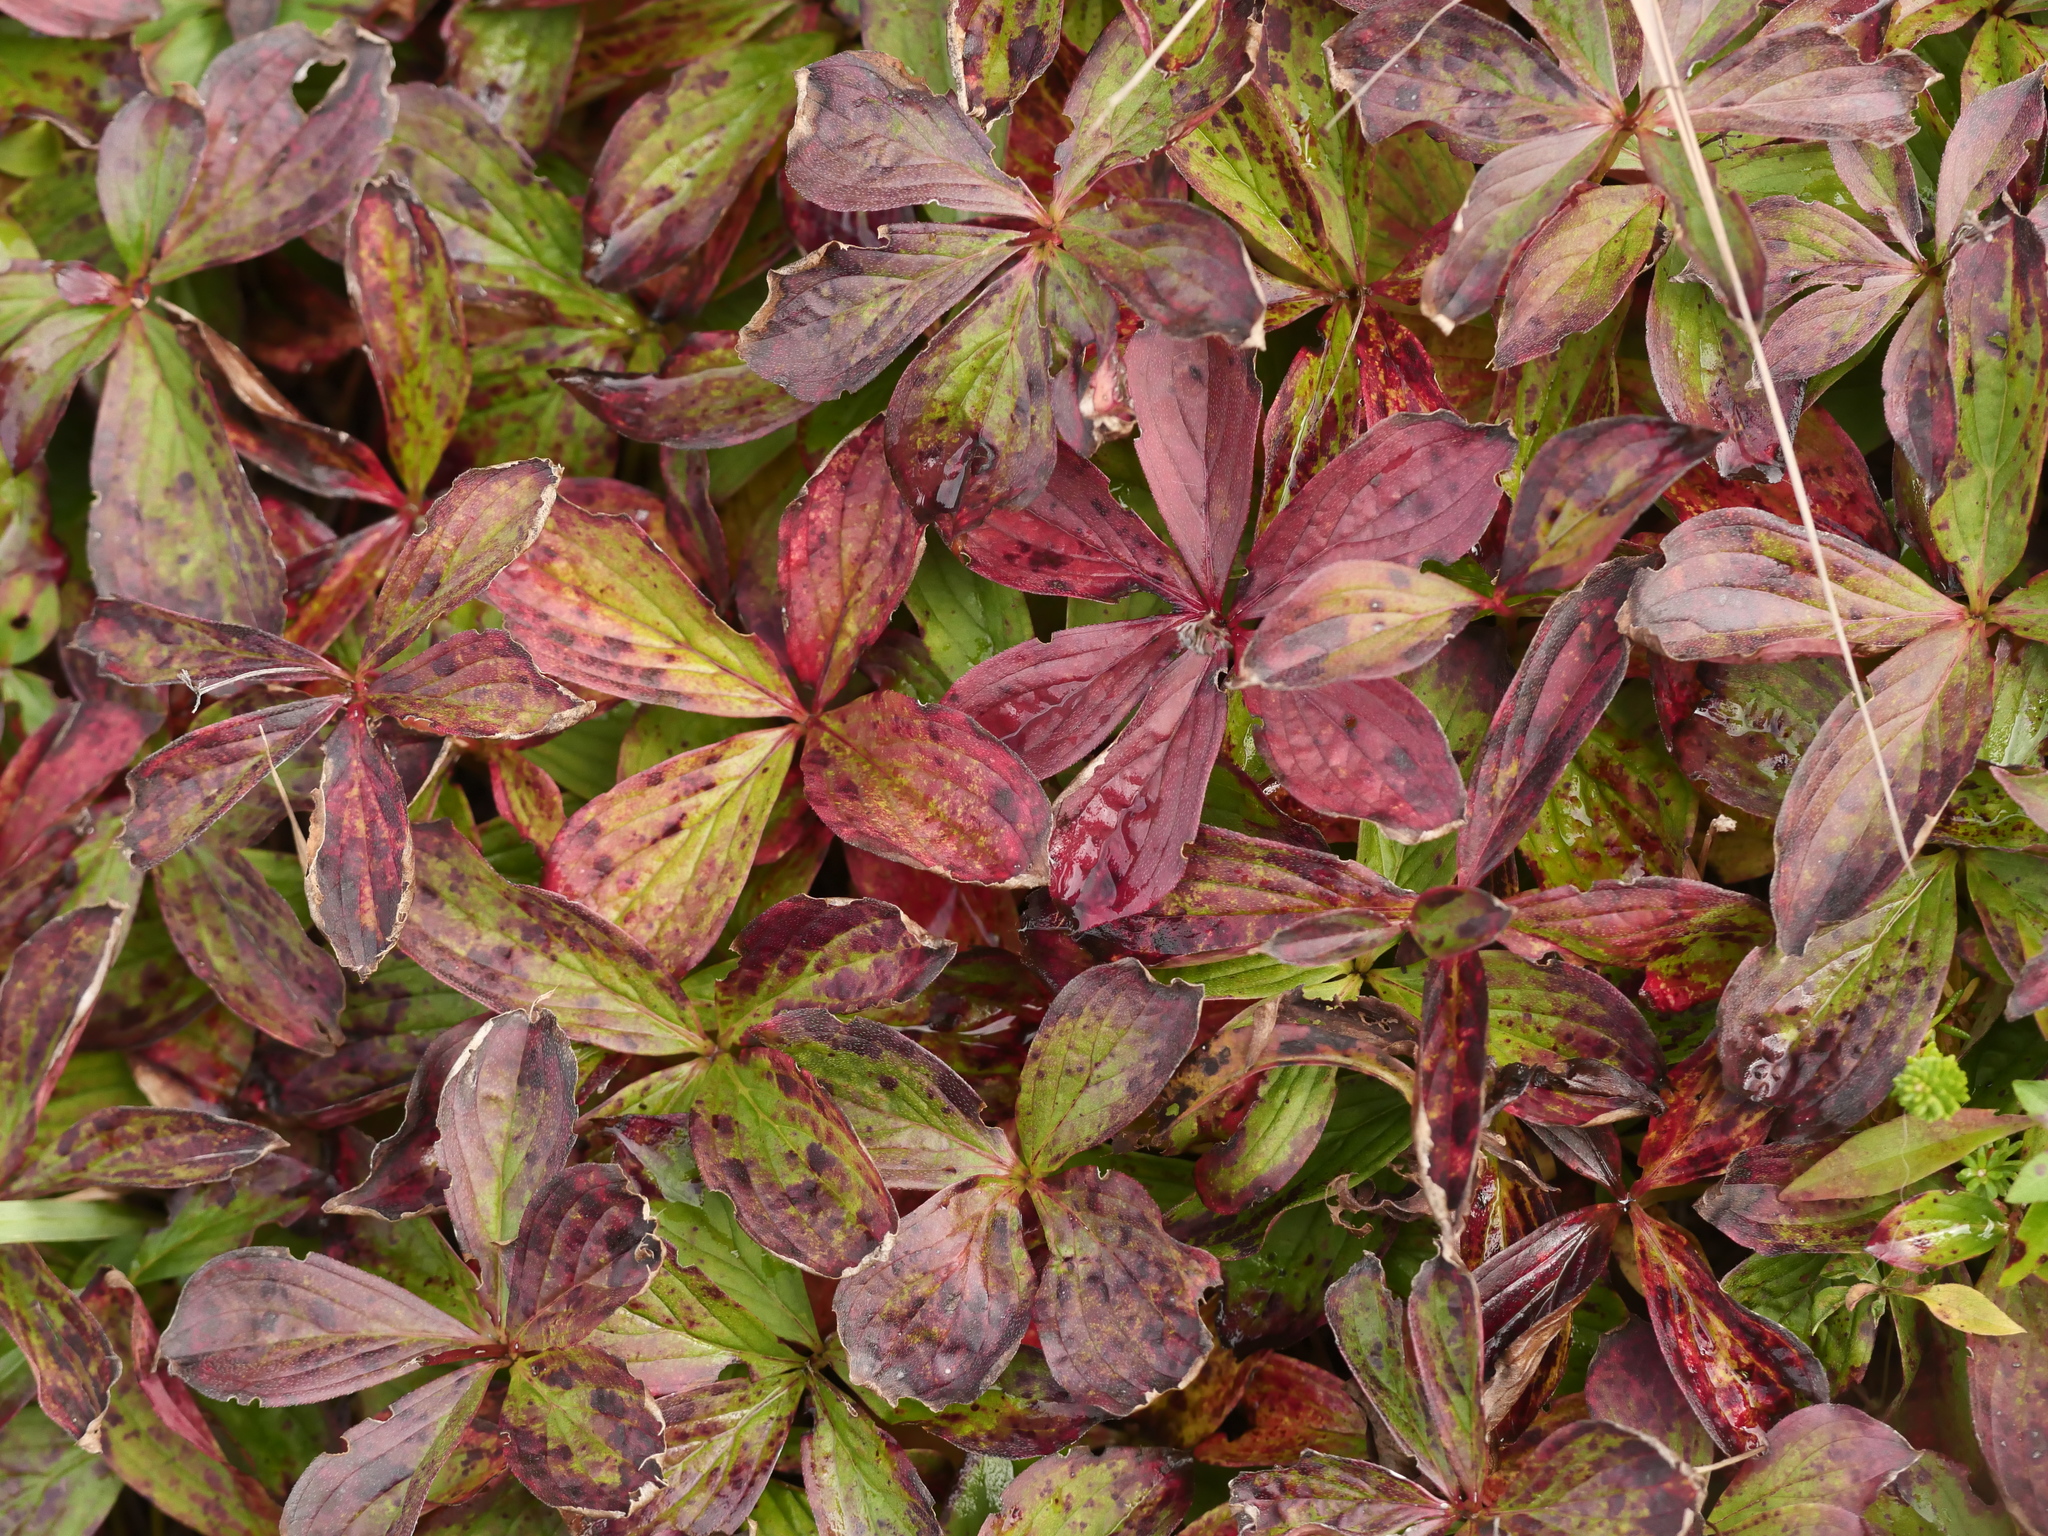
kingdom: Plantae
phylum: Tracheophyta
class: Magnoliopsida
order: Cornales
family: Cornaceae
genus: Cornus
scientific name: Cornus canadensis
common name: Creeping dogwood
